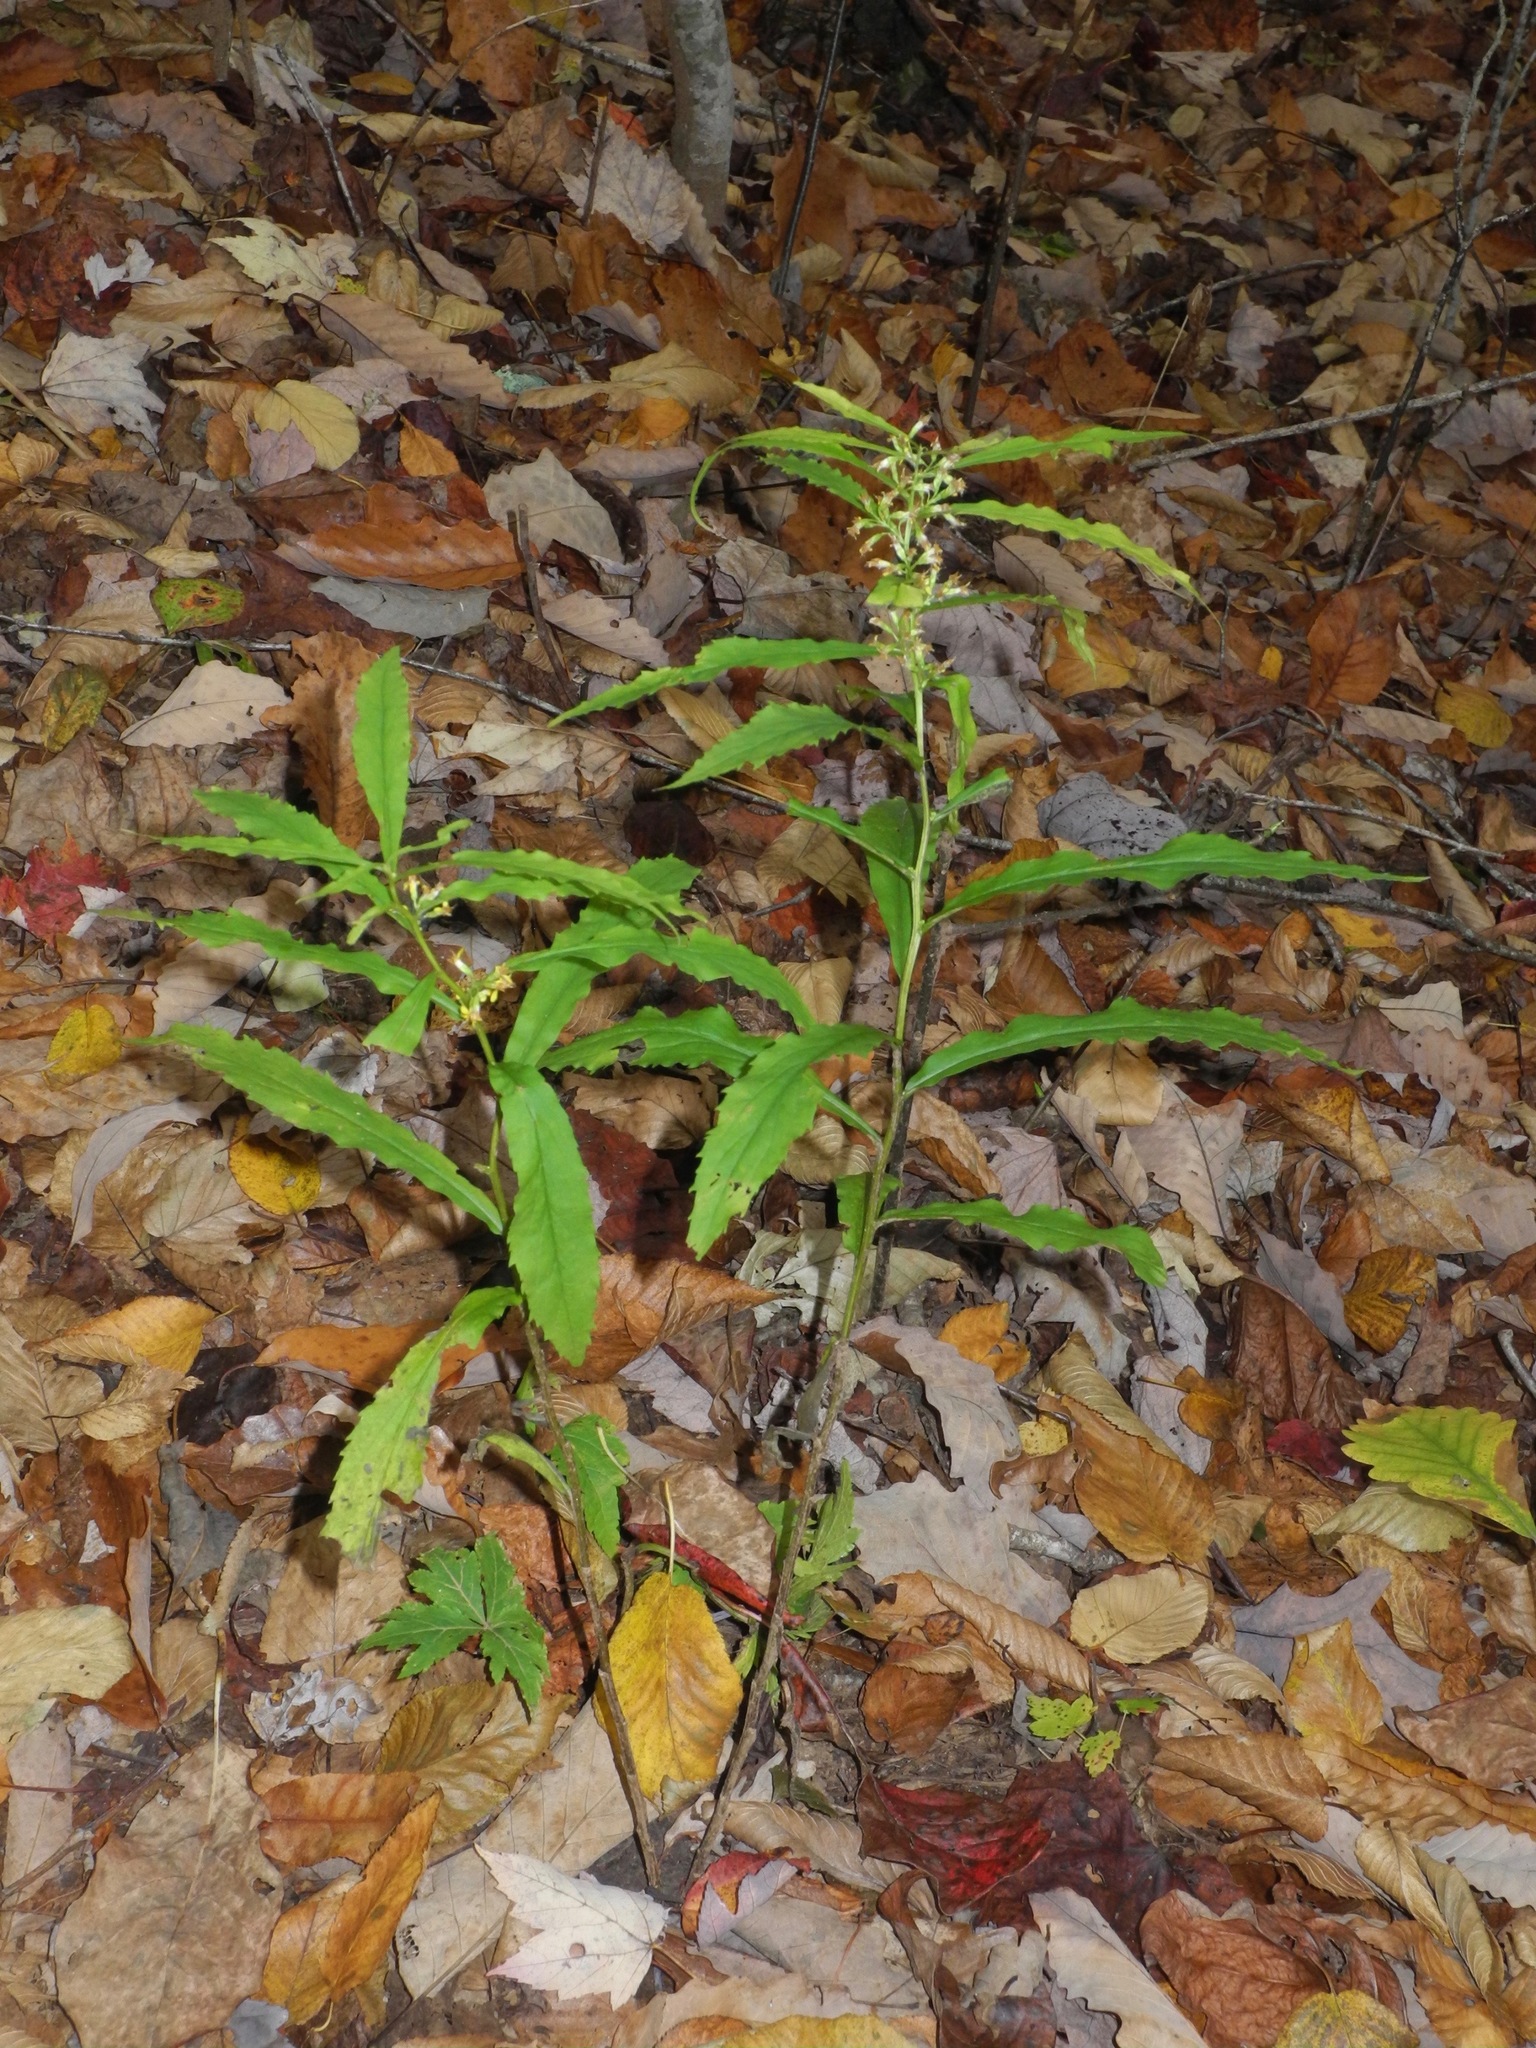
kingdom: Plantae
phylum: Tracheophyta
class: Magnoliopsida
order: Asterales
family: Asteraceae
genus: Solidago
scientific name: Solidago curtisii
